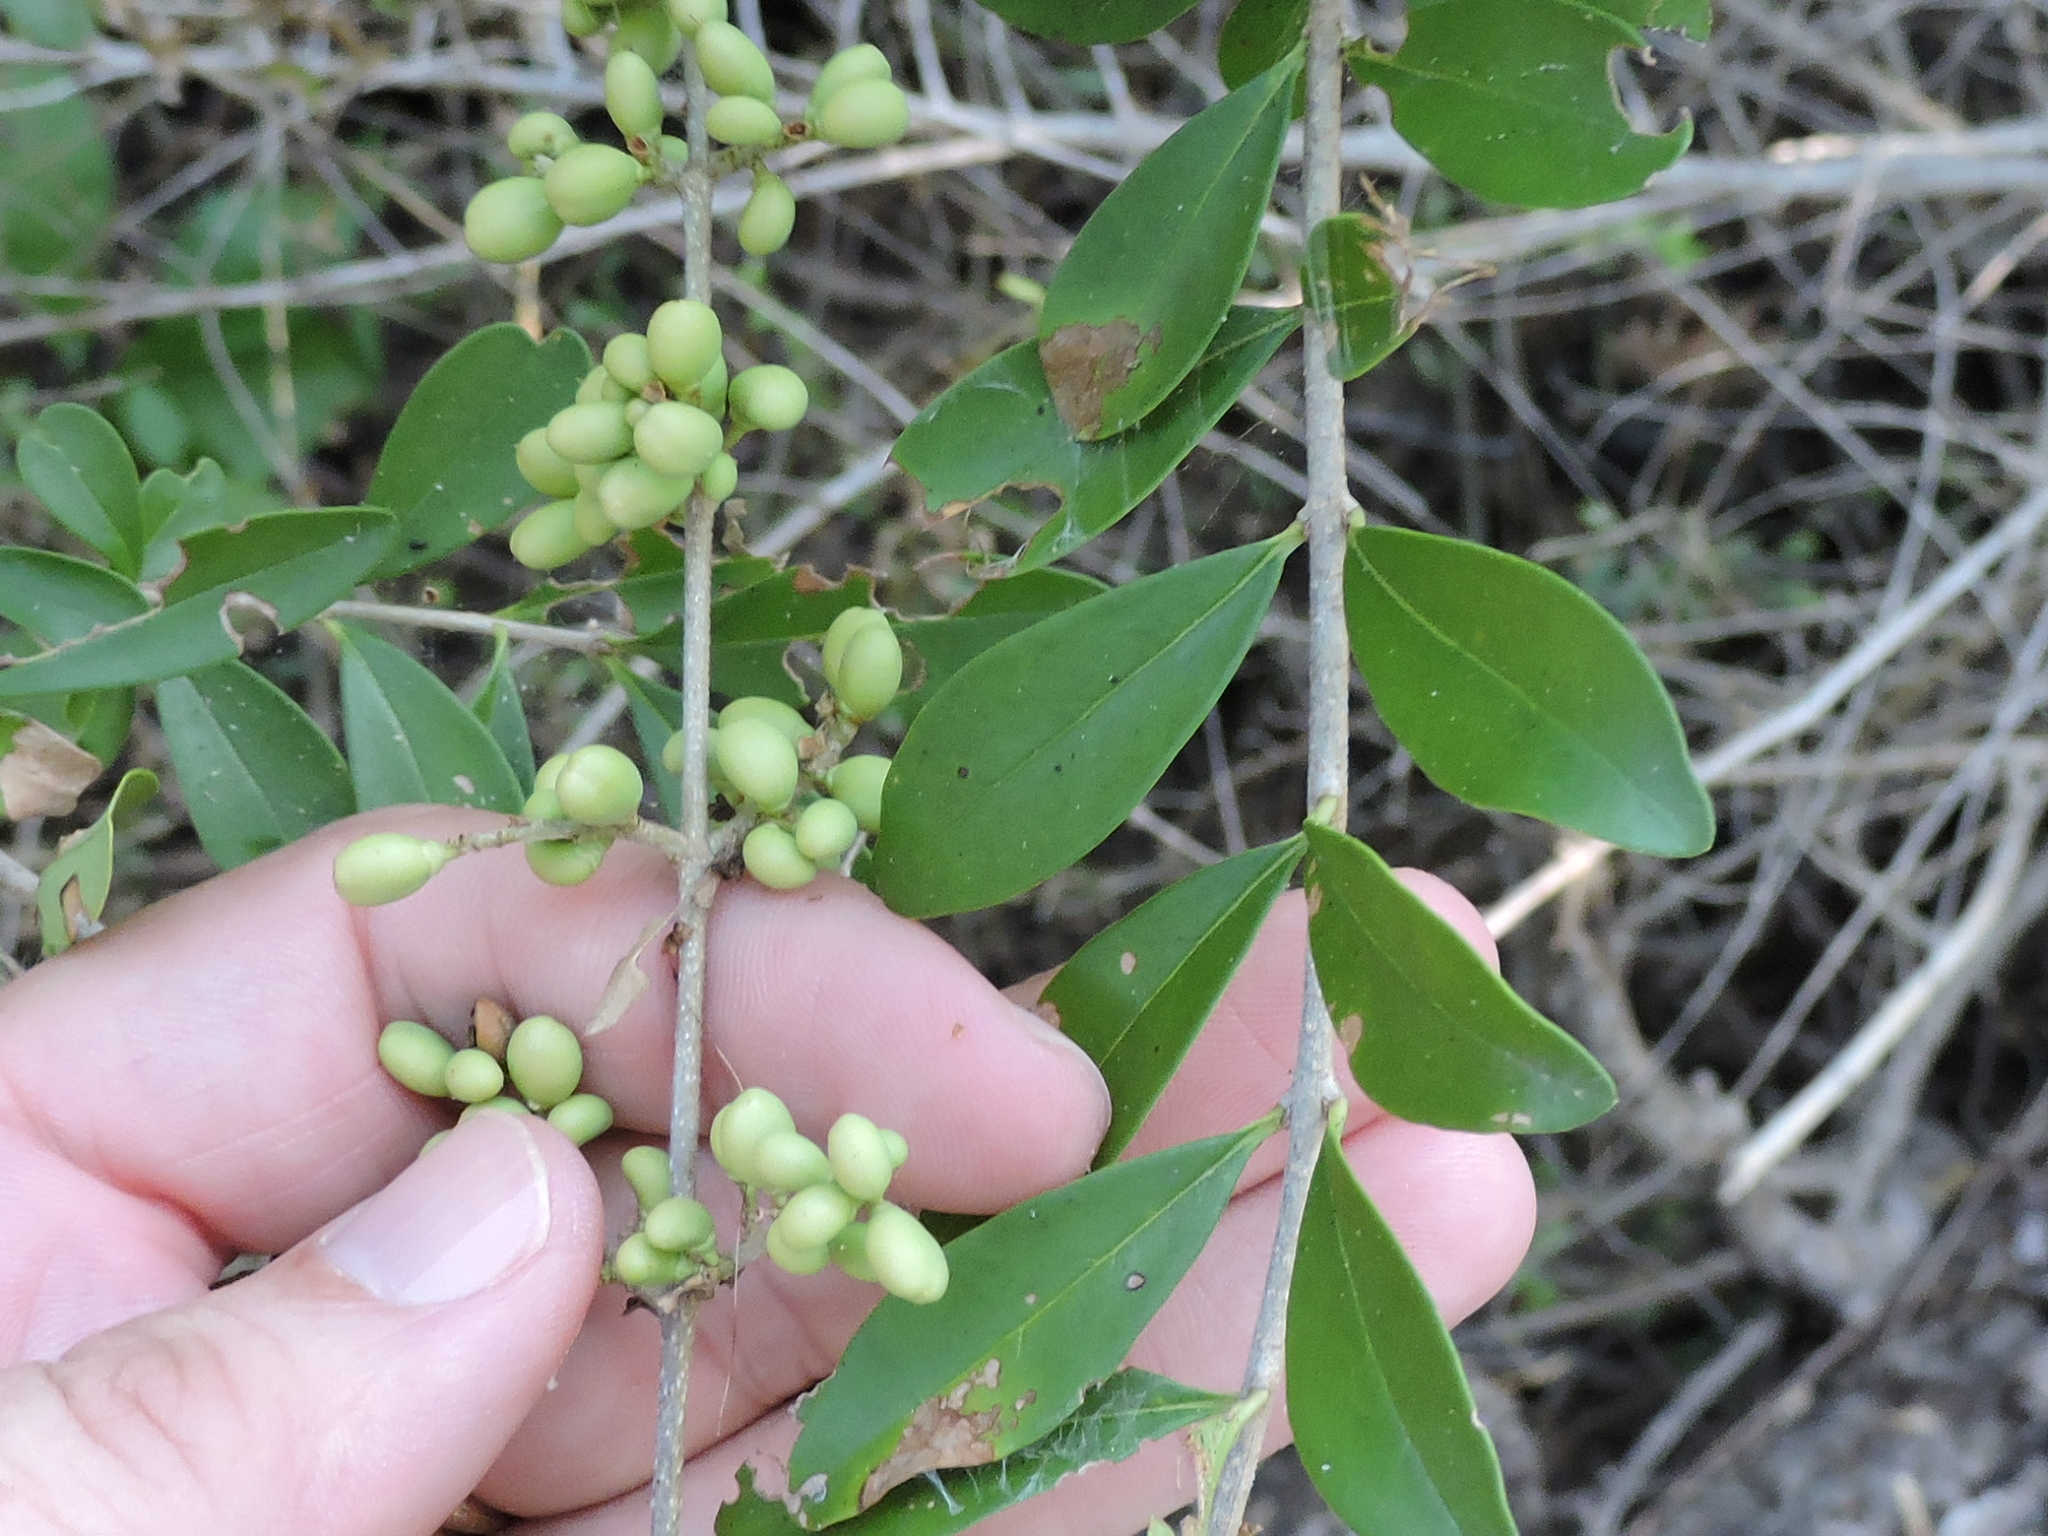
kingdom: Plantae
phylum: Tracheophyta
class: Magnoliopsida
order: Lamiales
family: Oleaceae
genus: Ligustrum
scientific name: Ligustrum quihoui
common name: Waxyleaf privet
